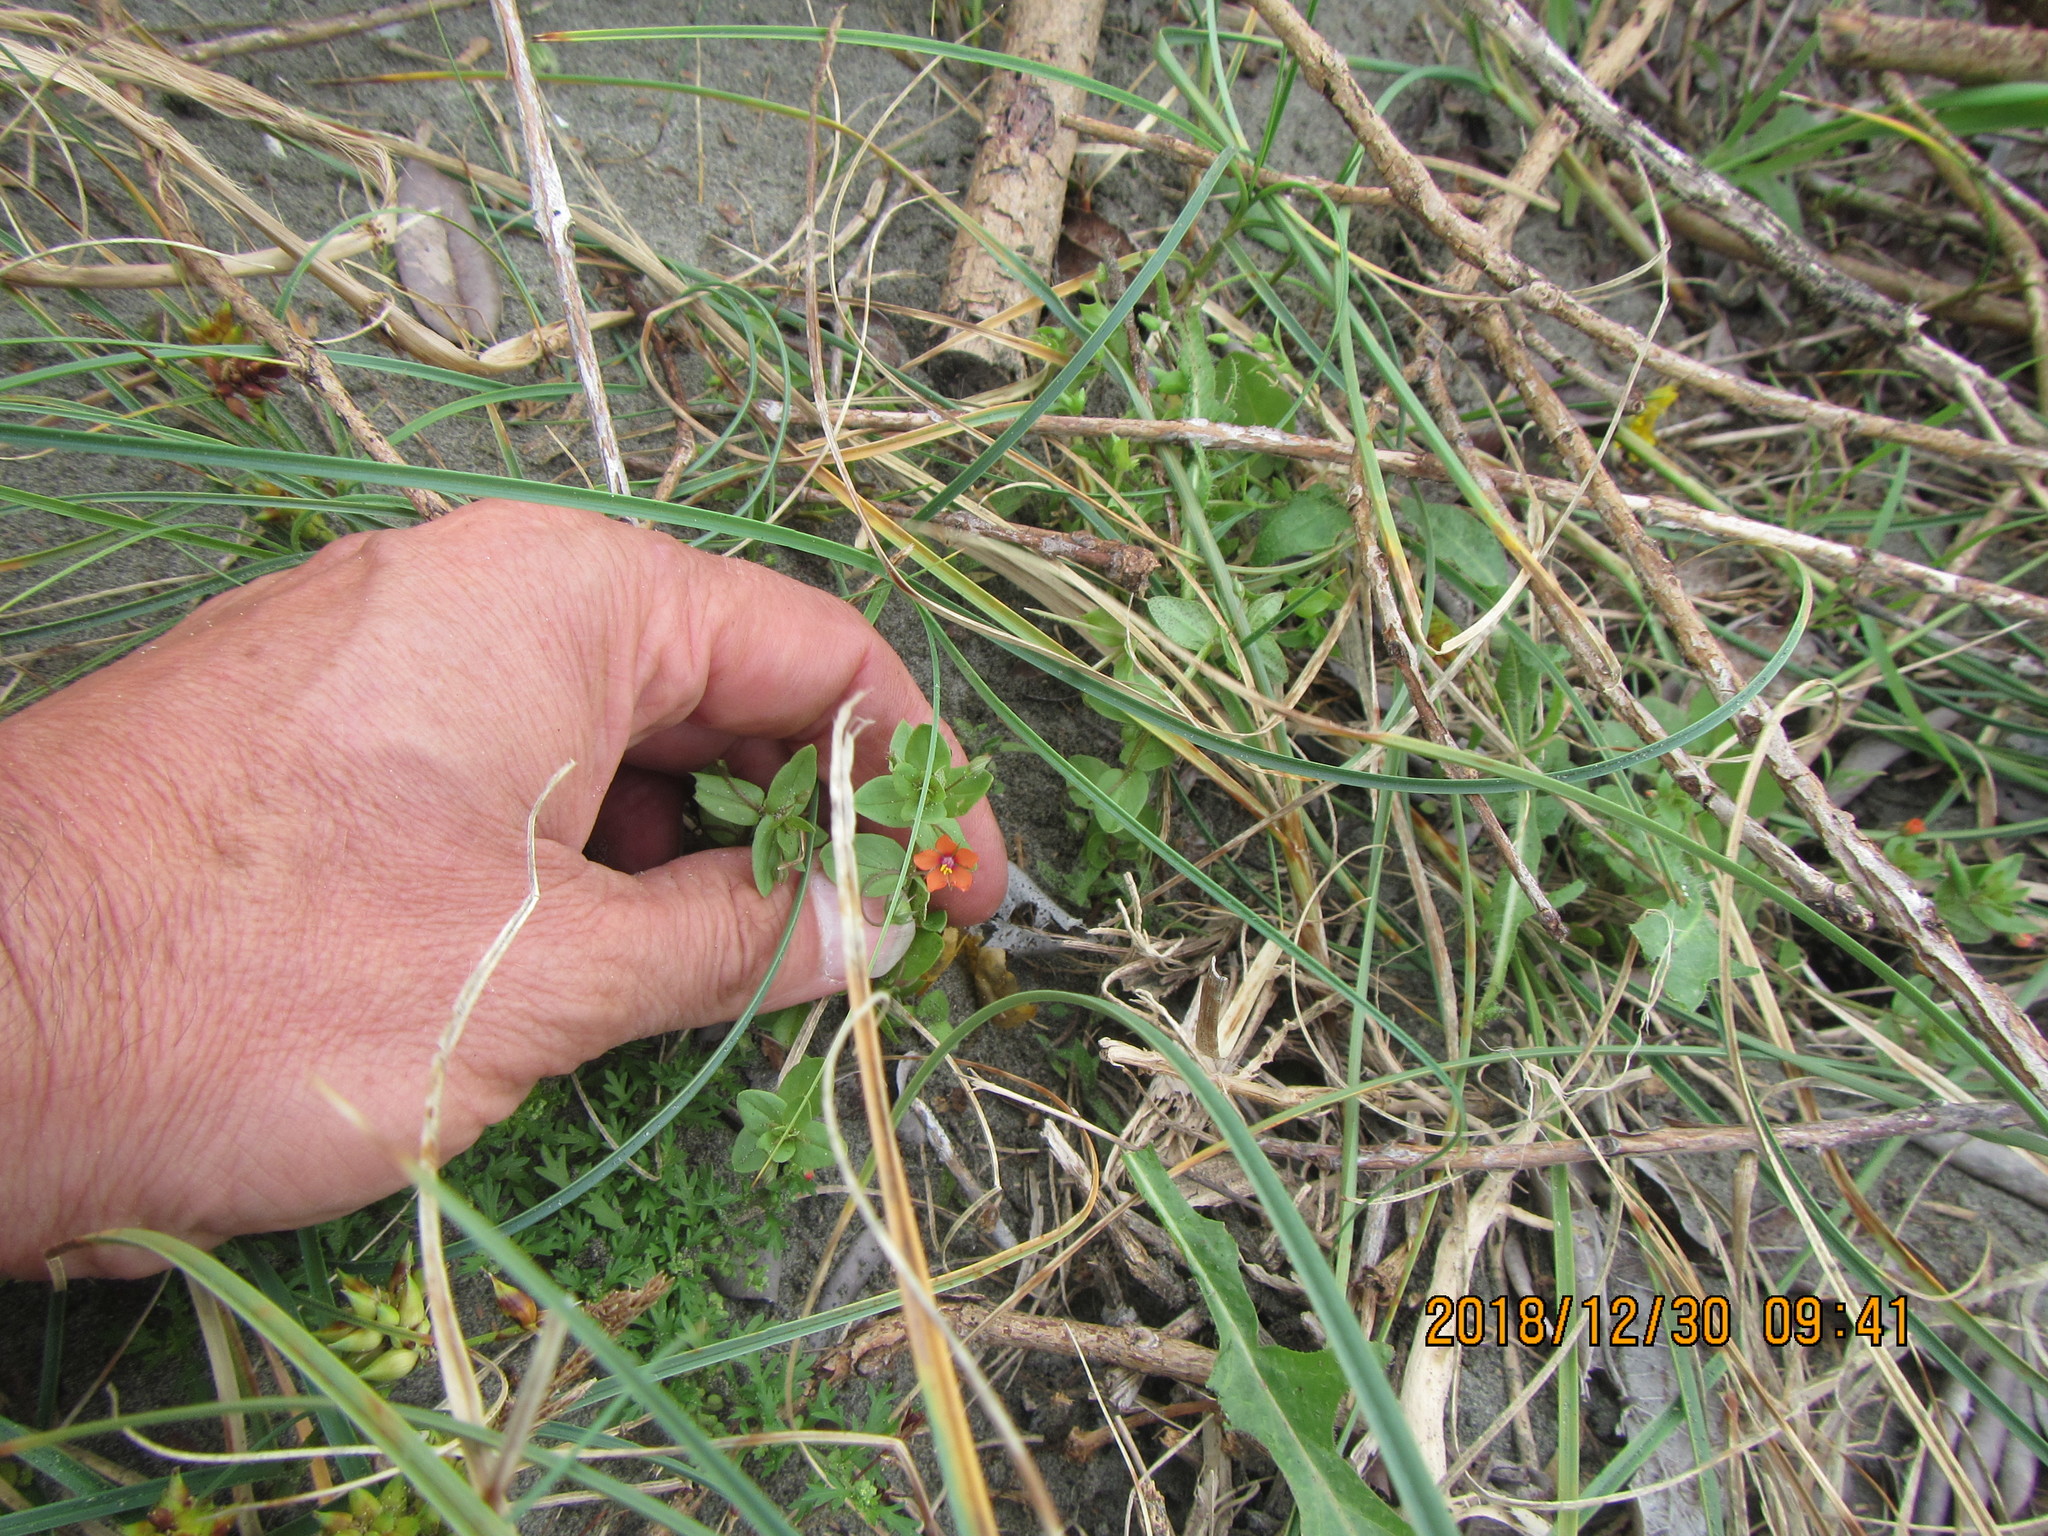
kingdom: Plantae
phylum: Tracheophyta
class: Magnoliopsida
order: Ericales
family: Primulaceae
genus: Lysimachia
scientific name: Lysimachia arvensis
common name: Scarlet pimpernel
